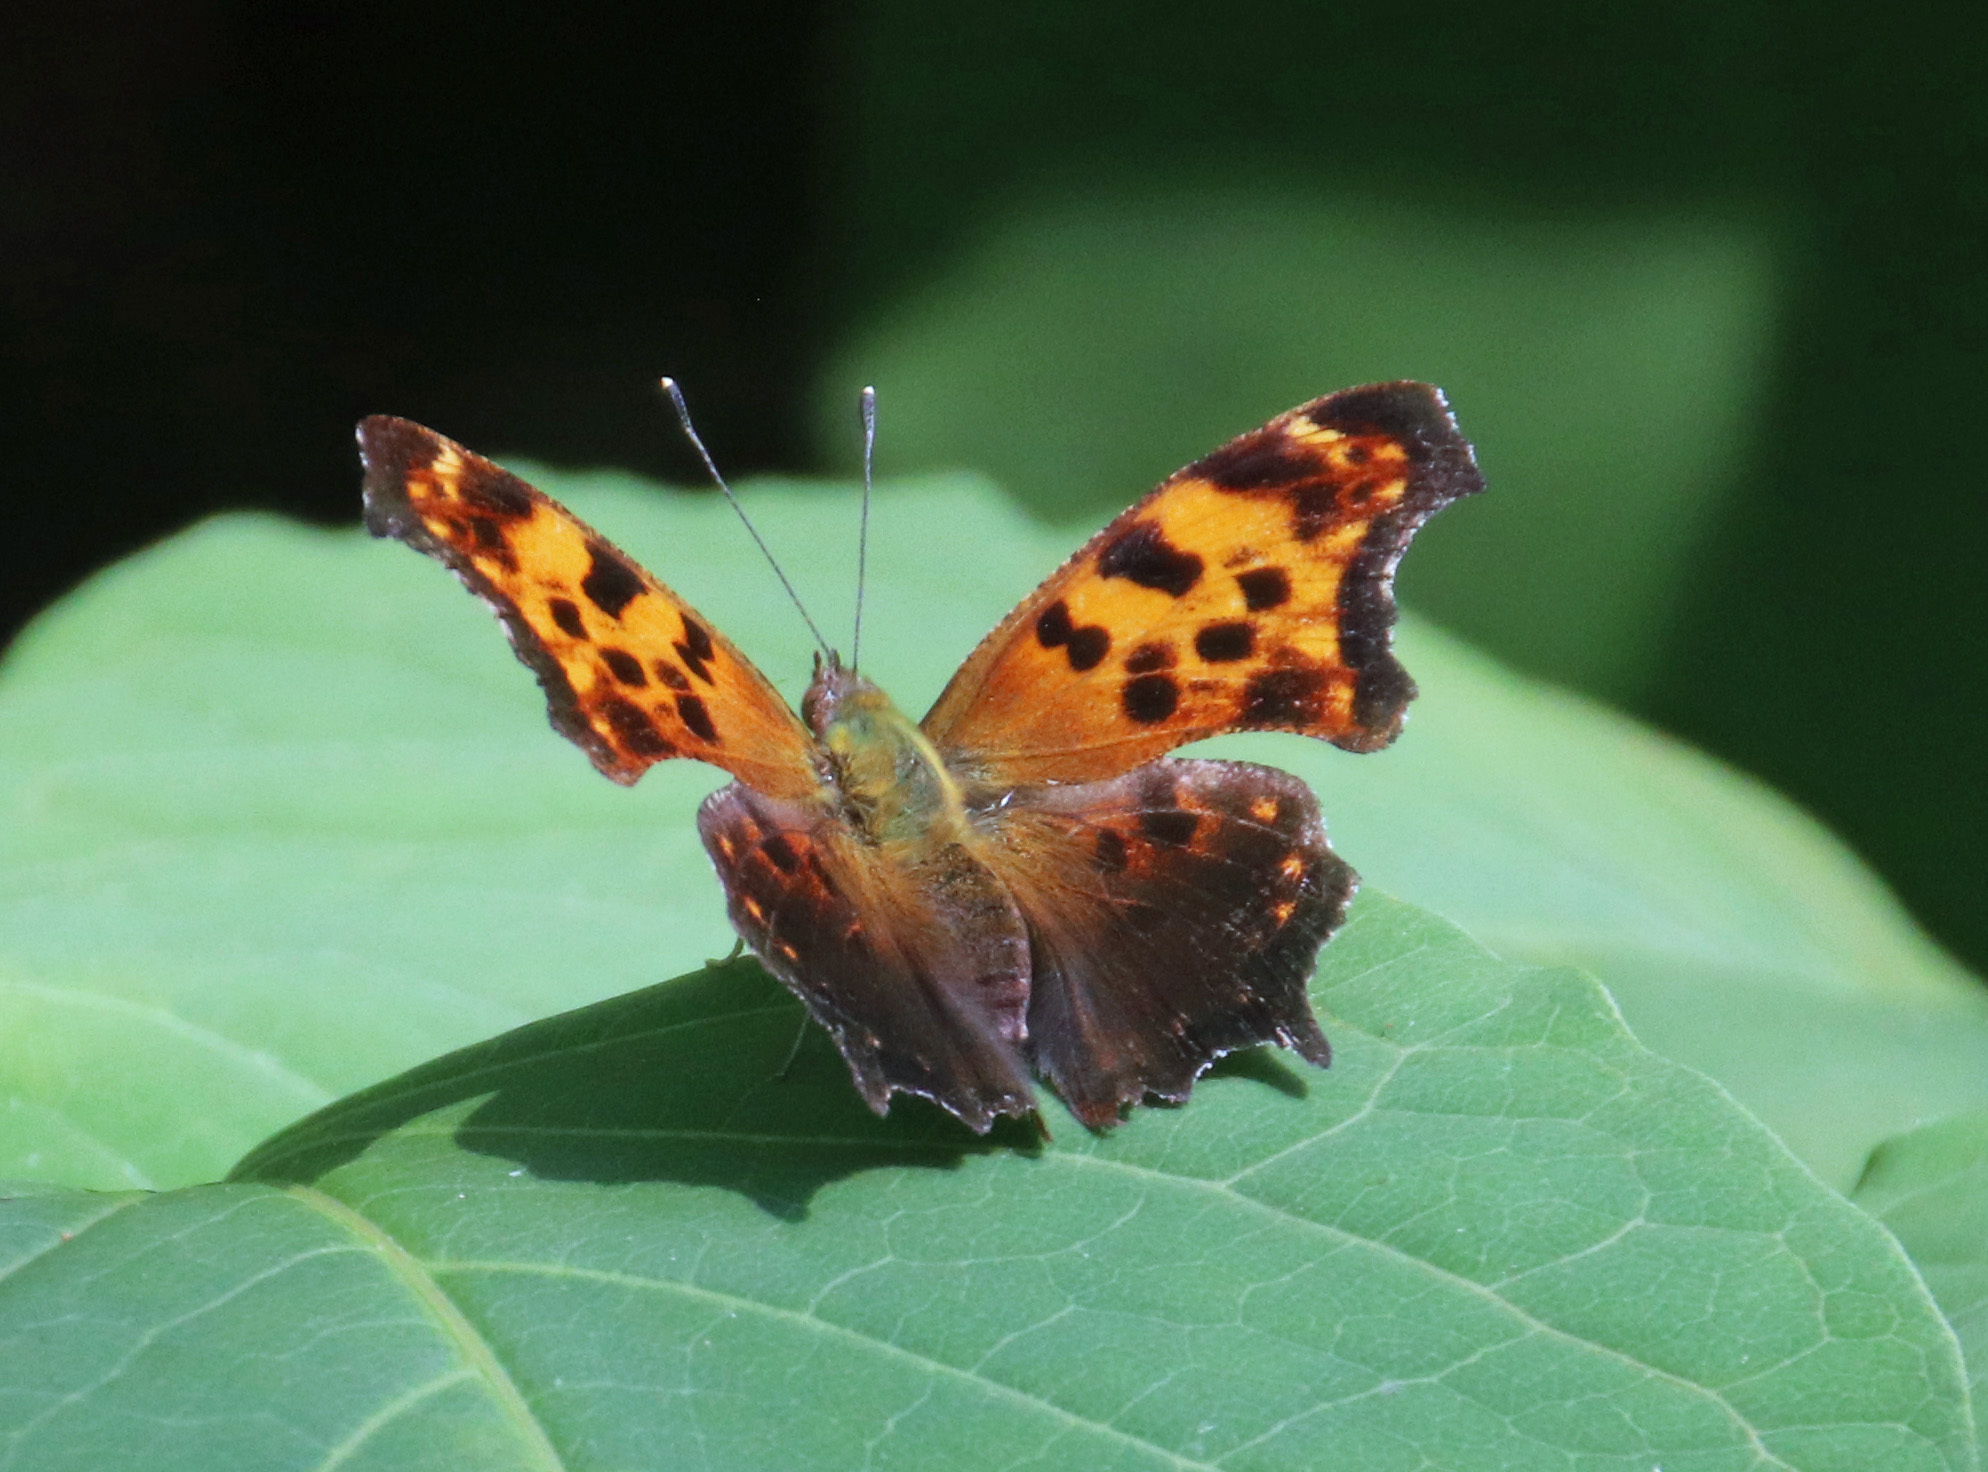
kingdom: Animalia
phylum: Arthropoda
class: Insecta
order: Lepidoptera
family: Nymphalidae
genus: Polygonia
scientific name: Polygonia comma
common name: Eastern comma
